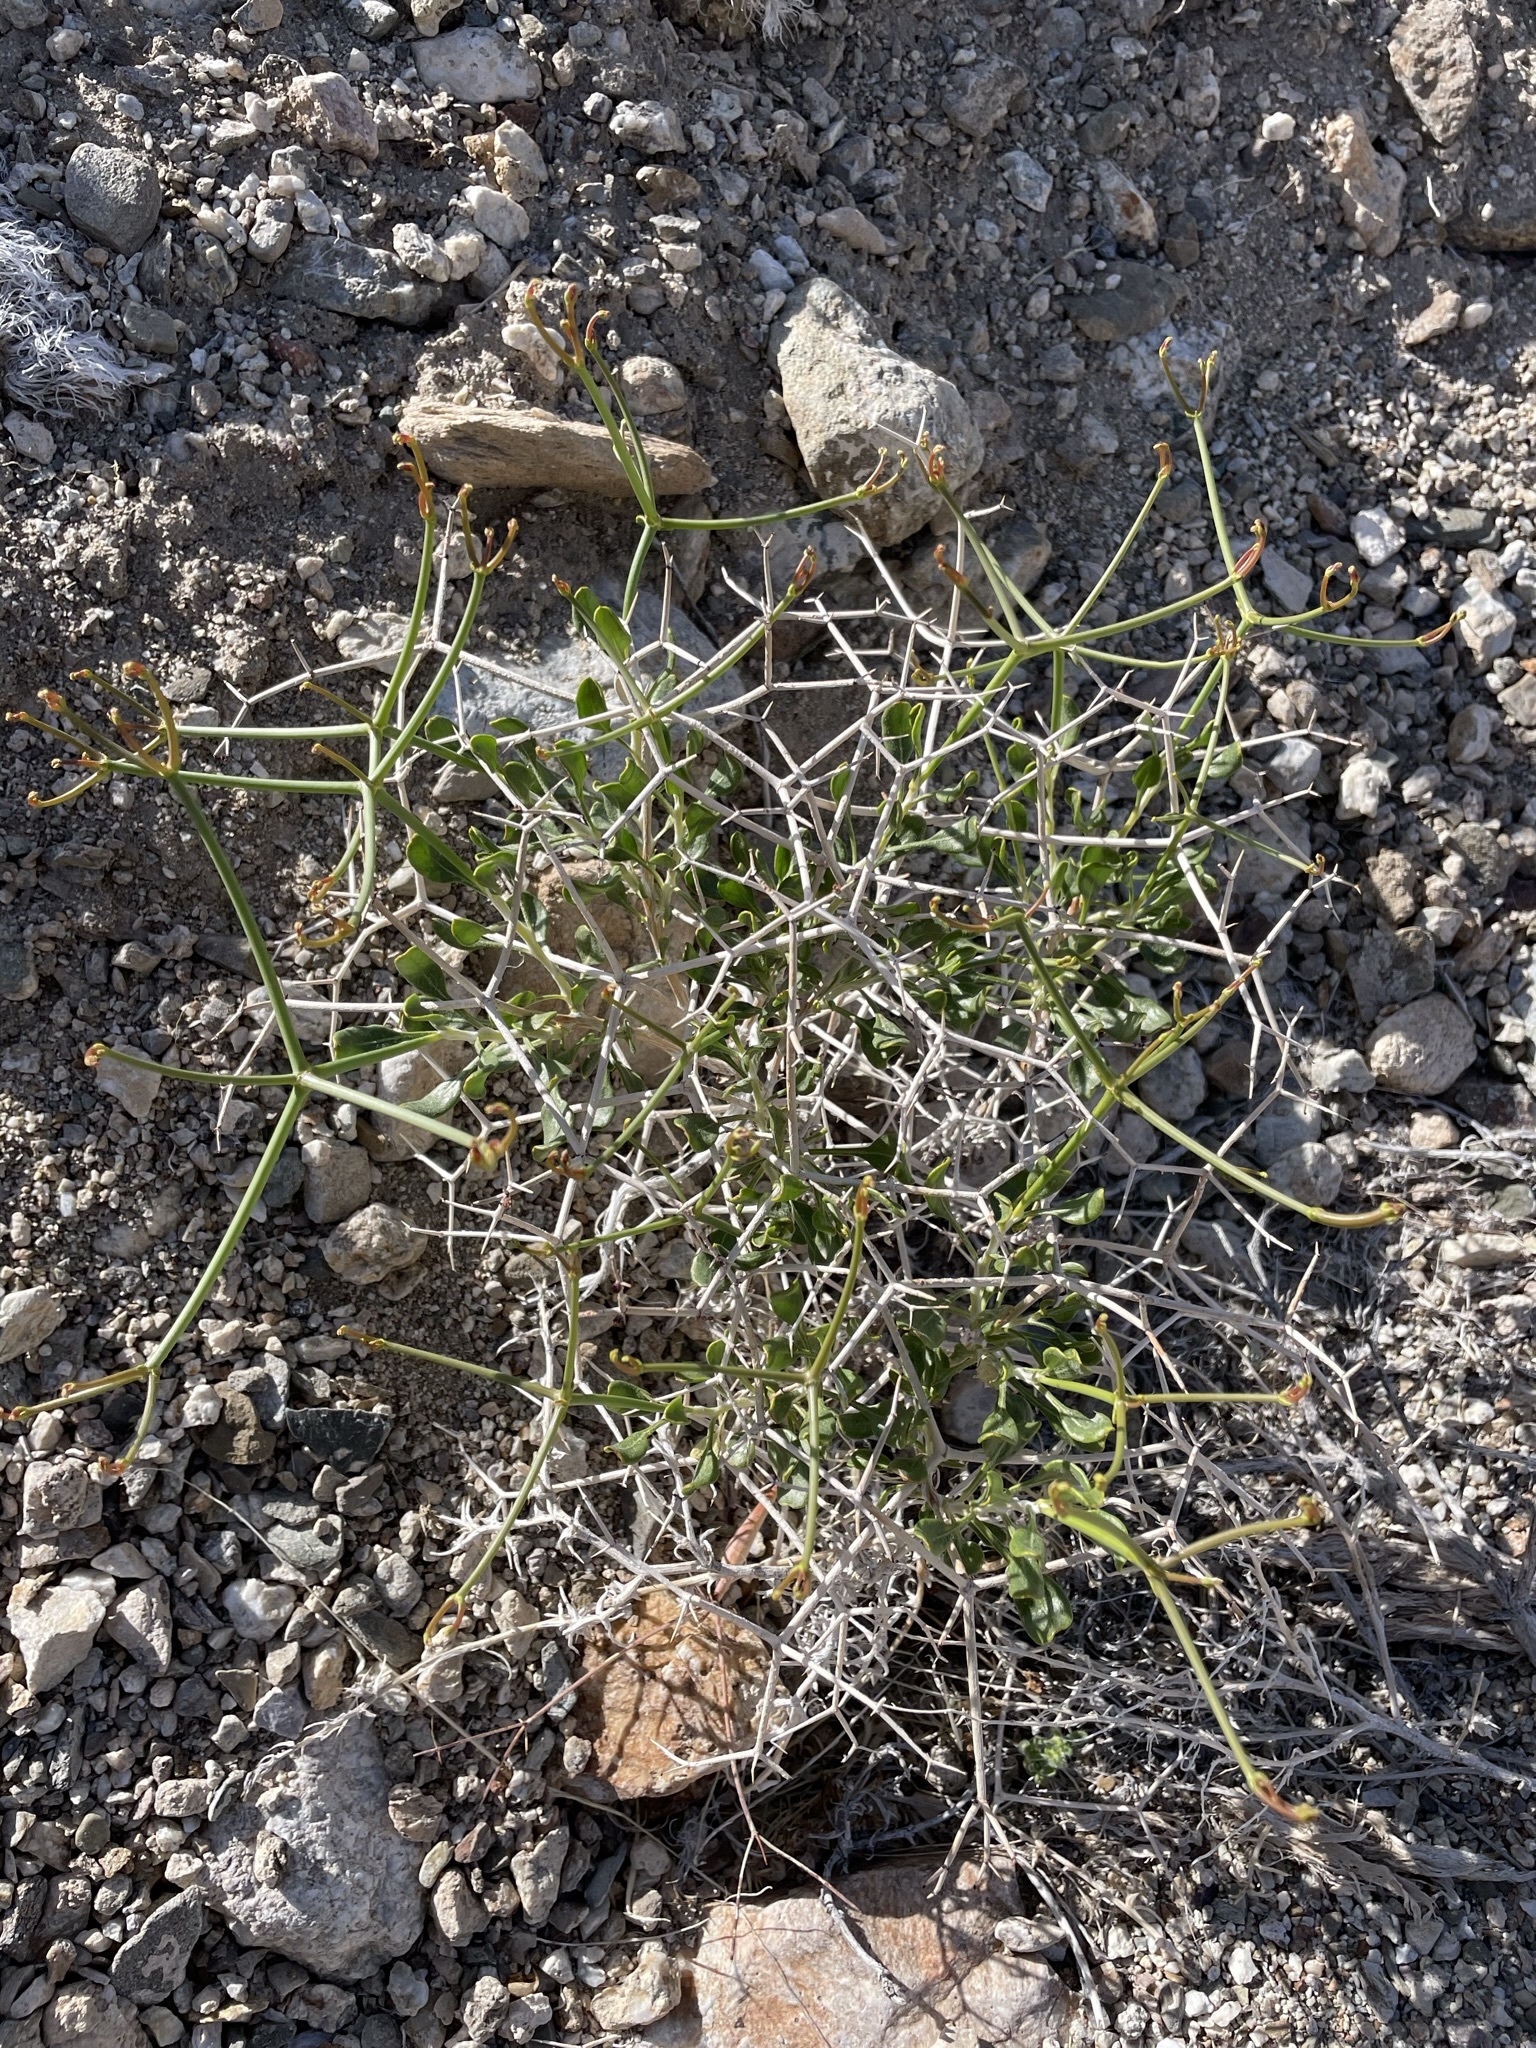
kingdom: Plantae
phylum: Tracheophyta
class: Magnoliopsida
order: Caryophyllales
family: Polygonaceae
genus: Eriogonum
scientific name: Eriogonum heermannii
